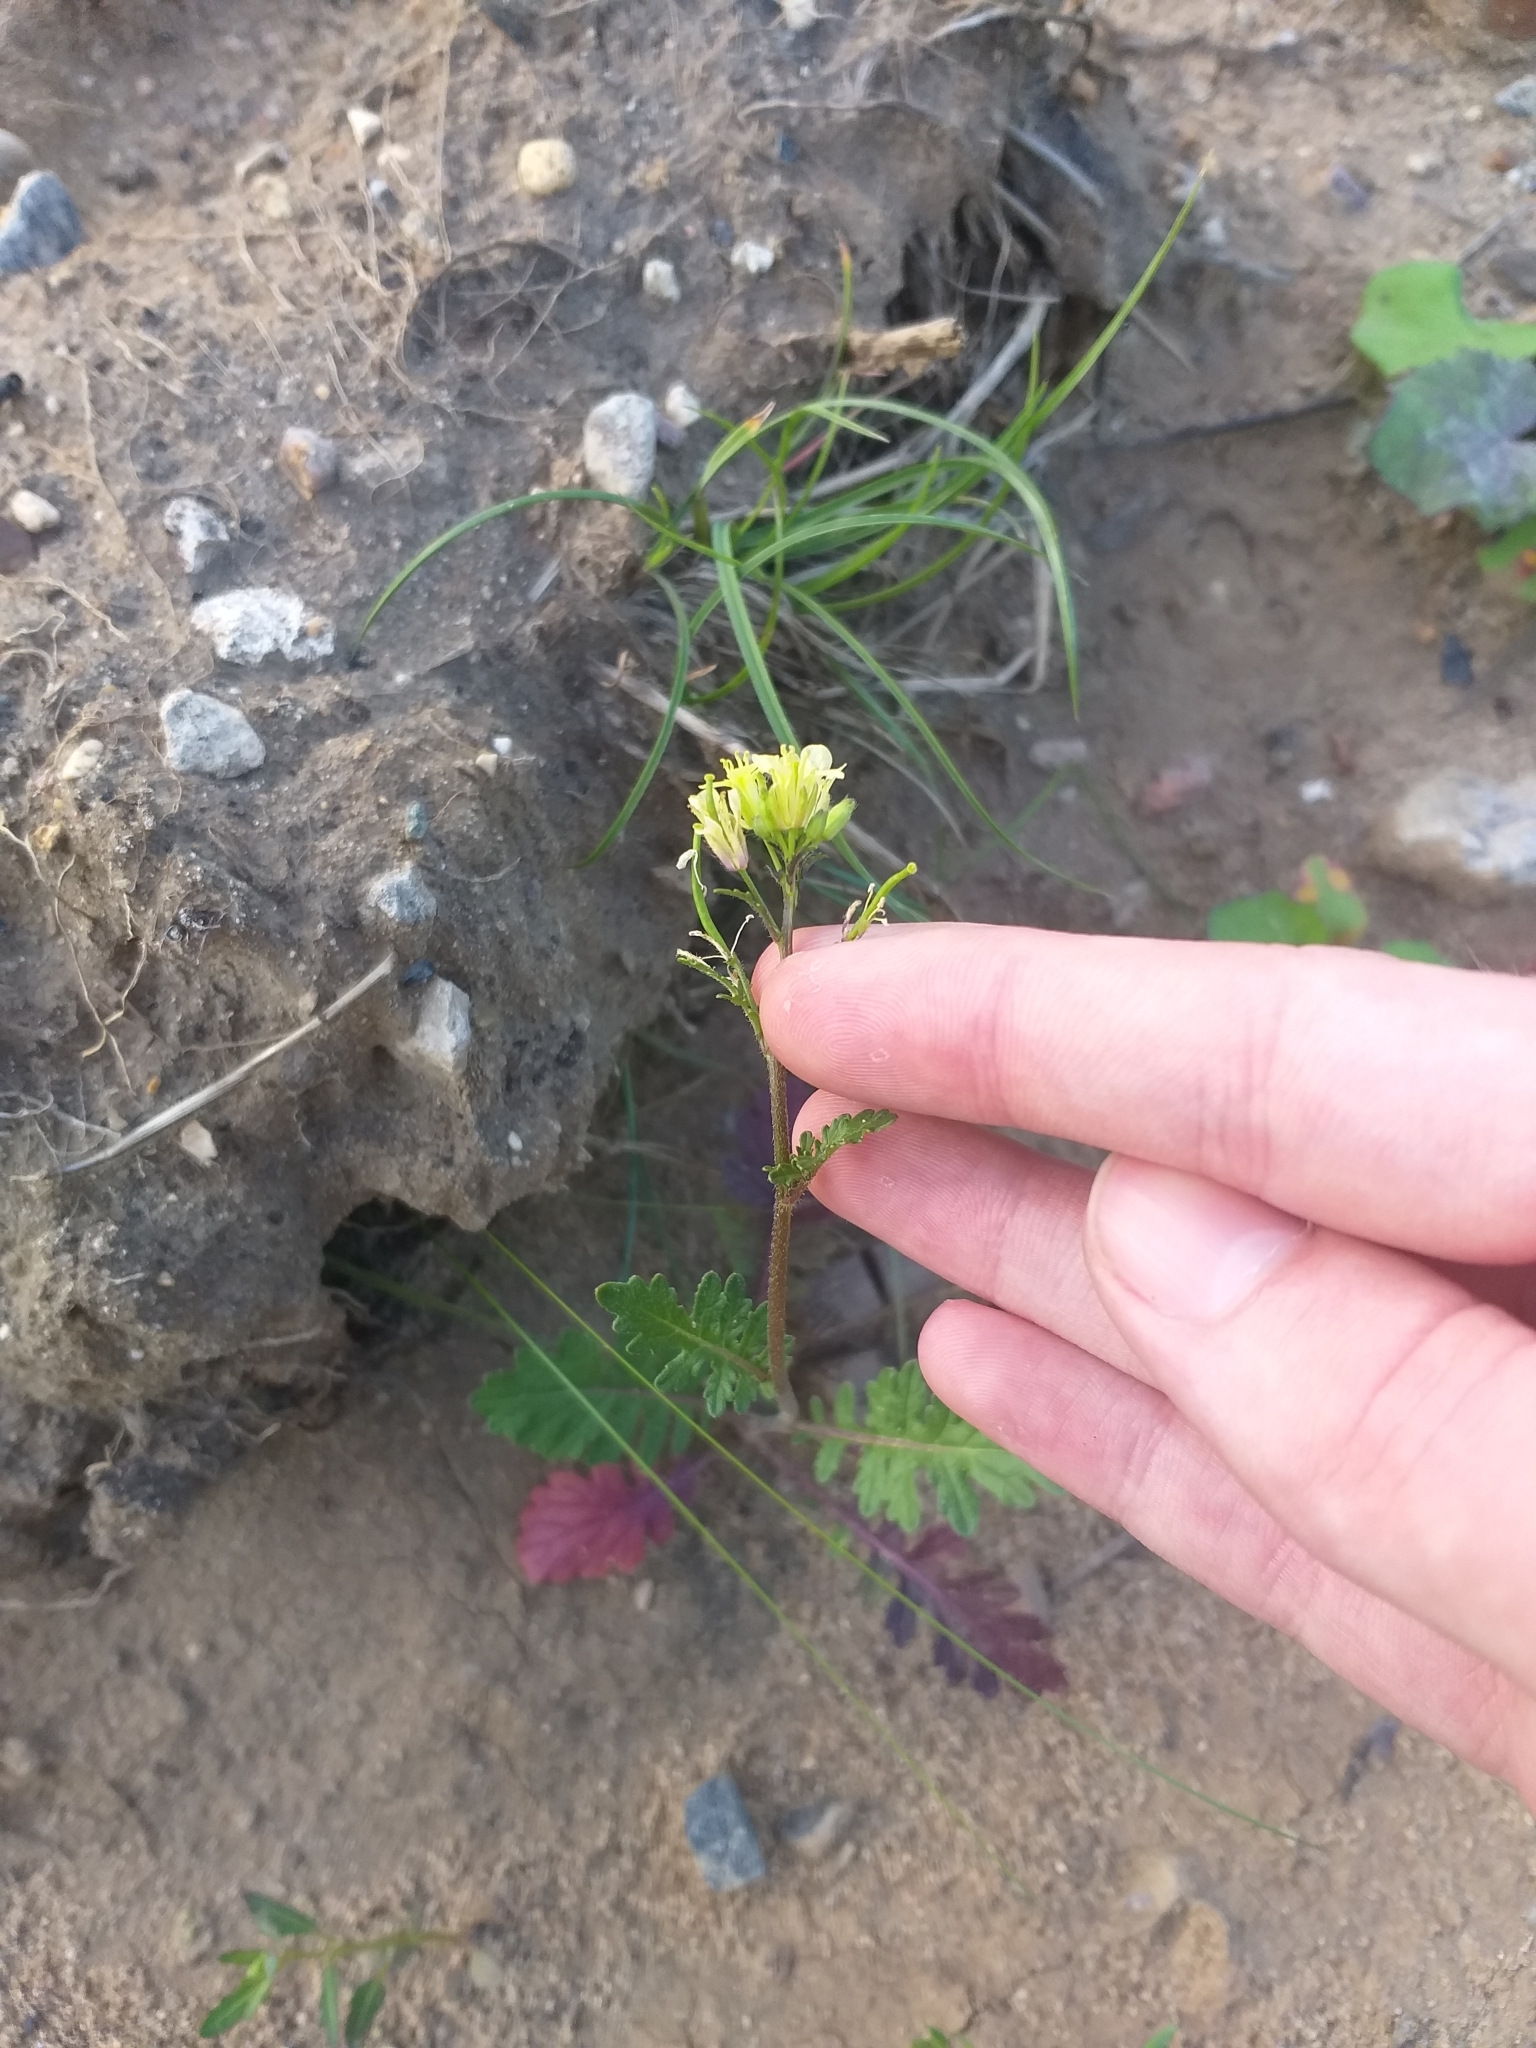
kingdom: Plantae
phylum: Tracheophyta
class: Magnoliopsida
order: Brassicales
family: Brassicaceae
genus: Erucastrum
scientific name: Erucastrum gallicum
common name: Hairy rocket
